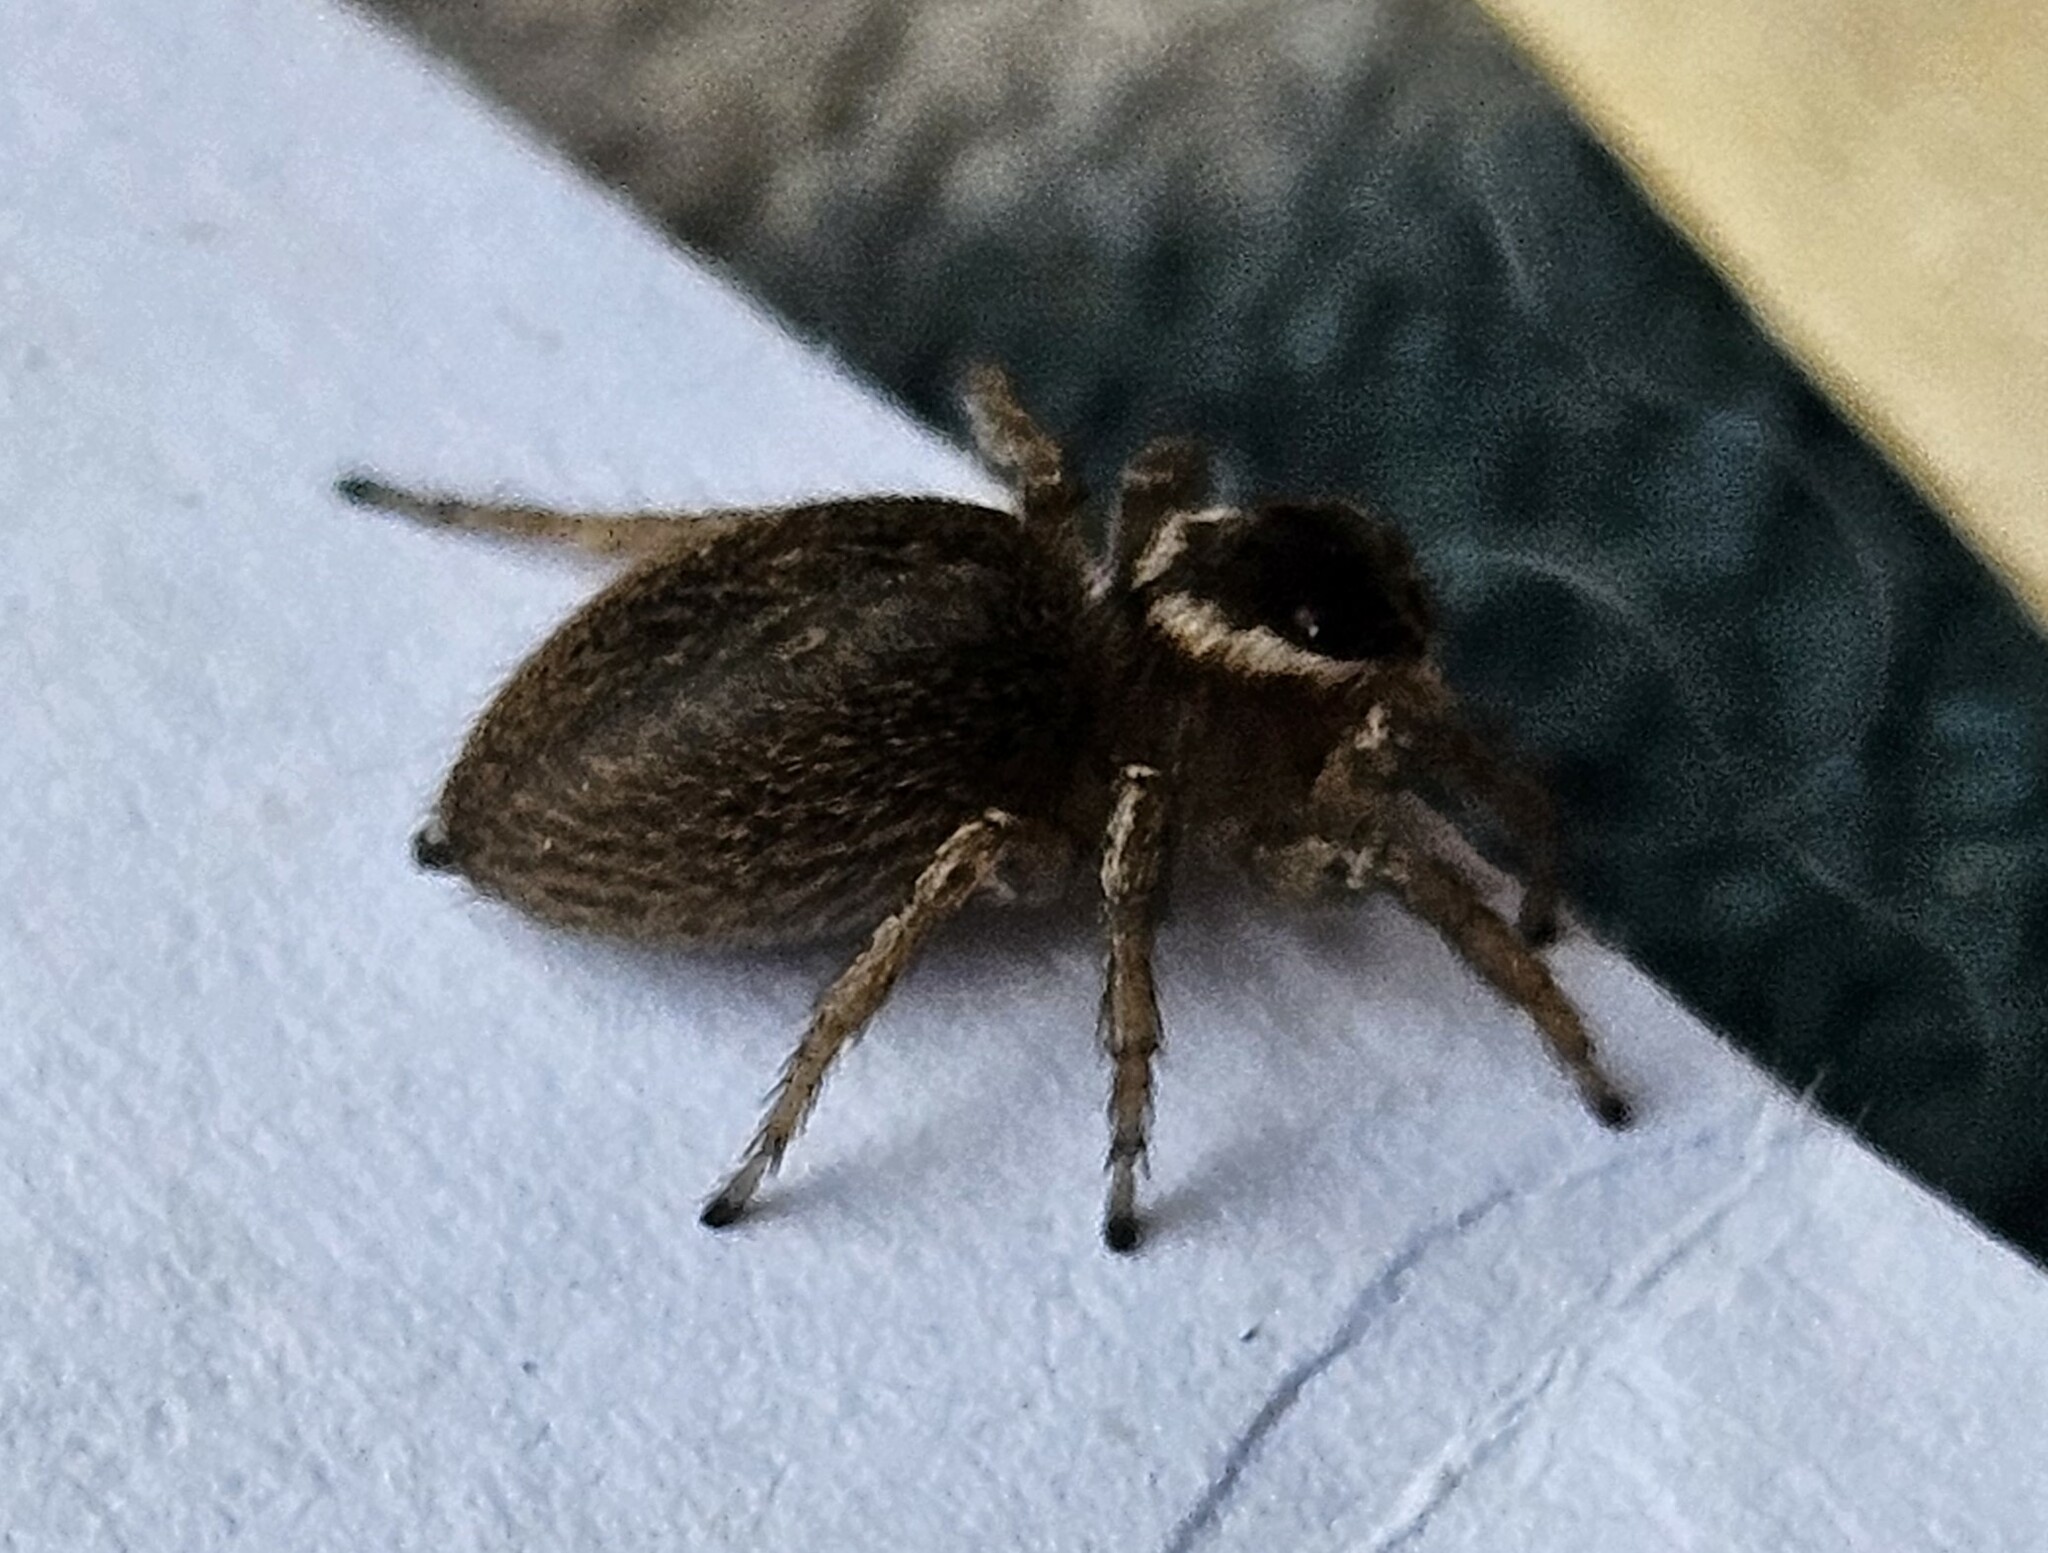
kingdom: Animalia
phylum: Arthropoda
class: Arachnida
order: Araneae
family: Salticidae
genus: Maratus
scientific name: Maratus griseus
